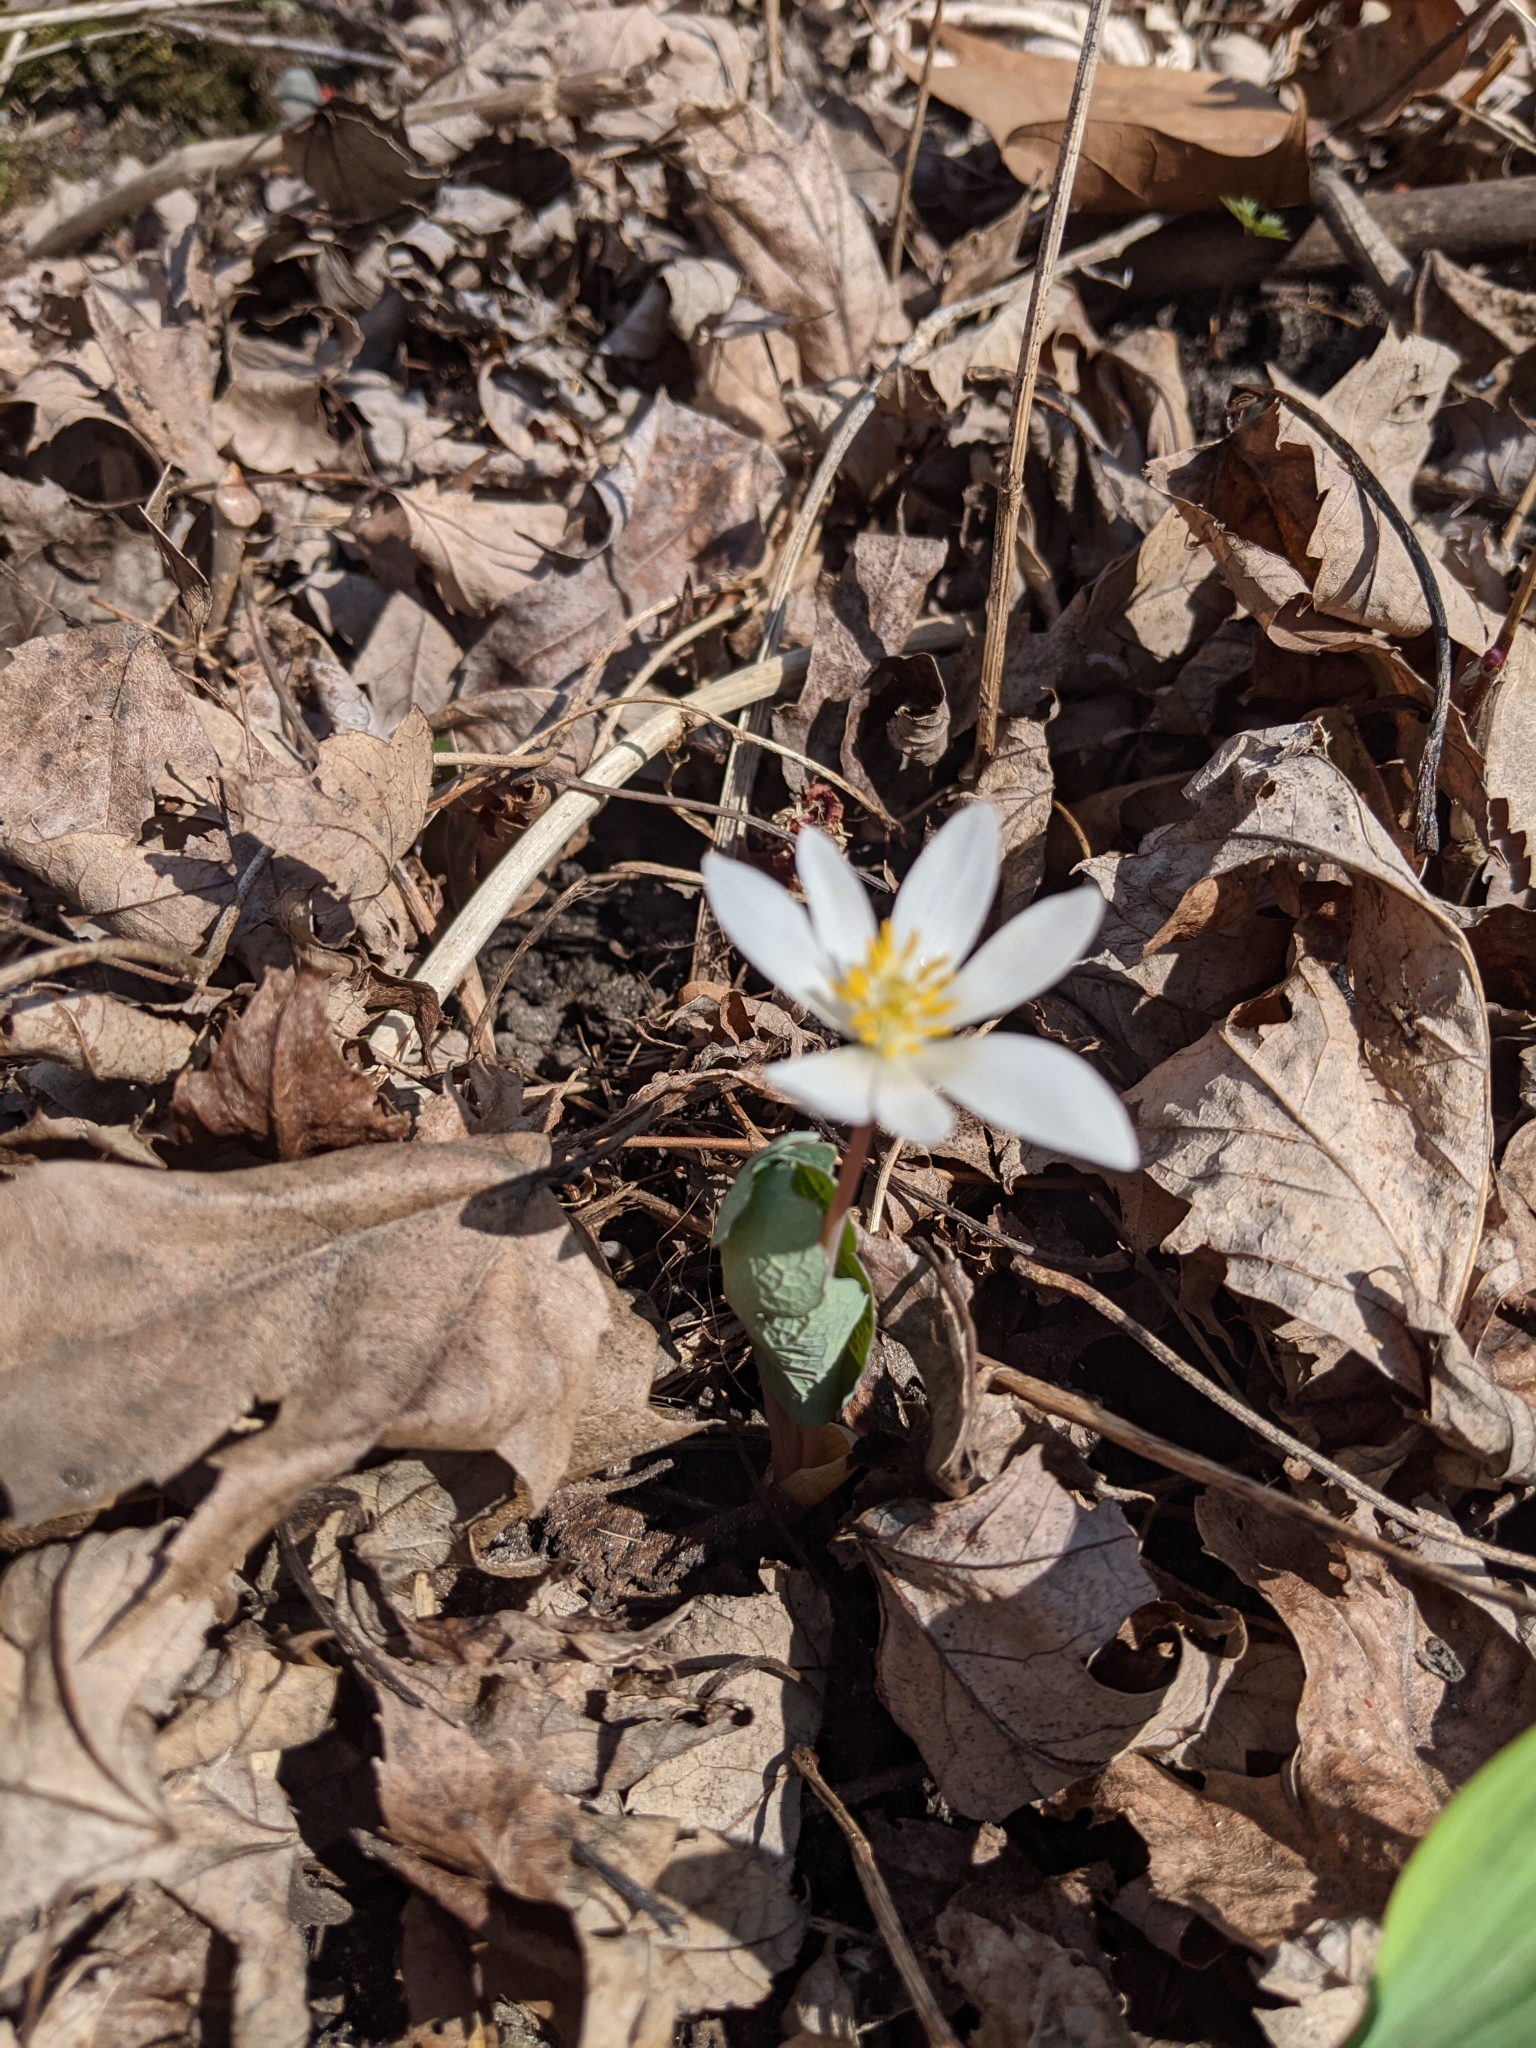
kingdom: Plantae
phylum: Tracheophyta
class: Magnoliopsida
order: Ranunculales
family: Papaveraceae
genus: Sanguinaria
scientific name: Sanguinaria canadensis
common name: Bloodroot
